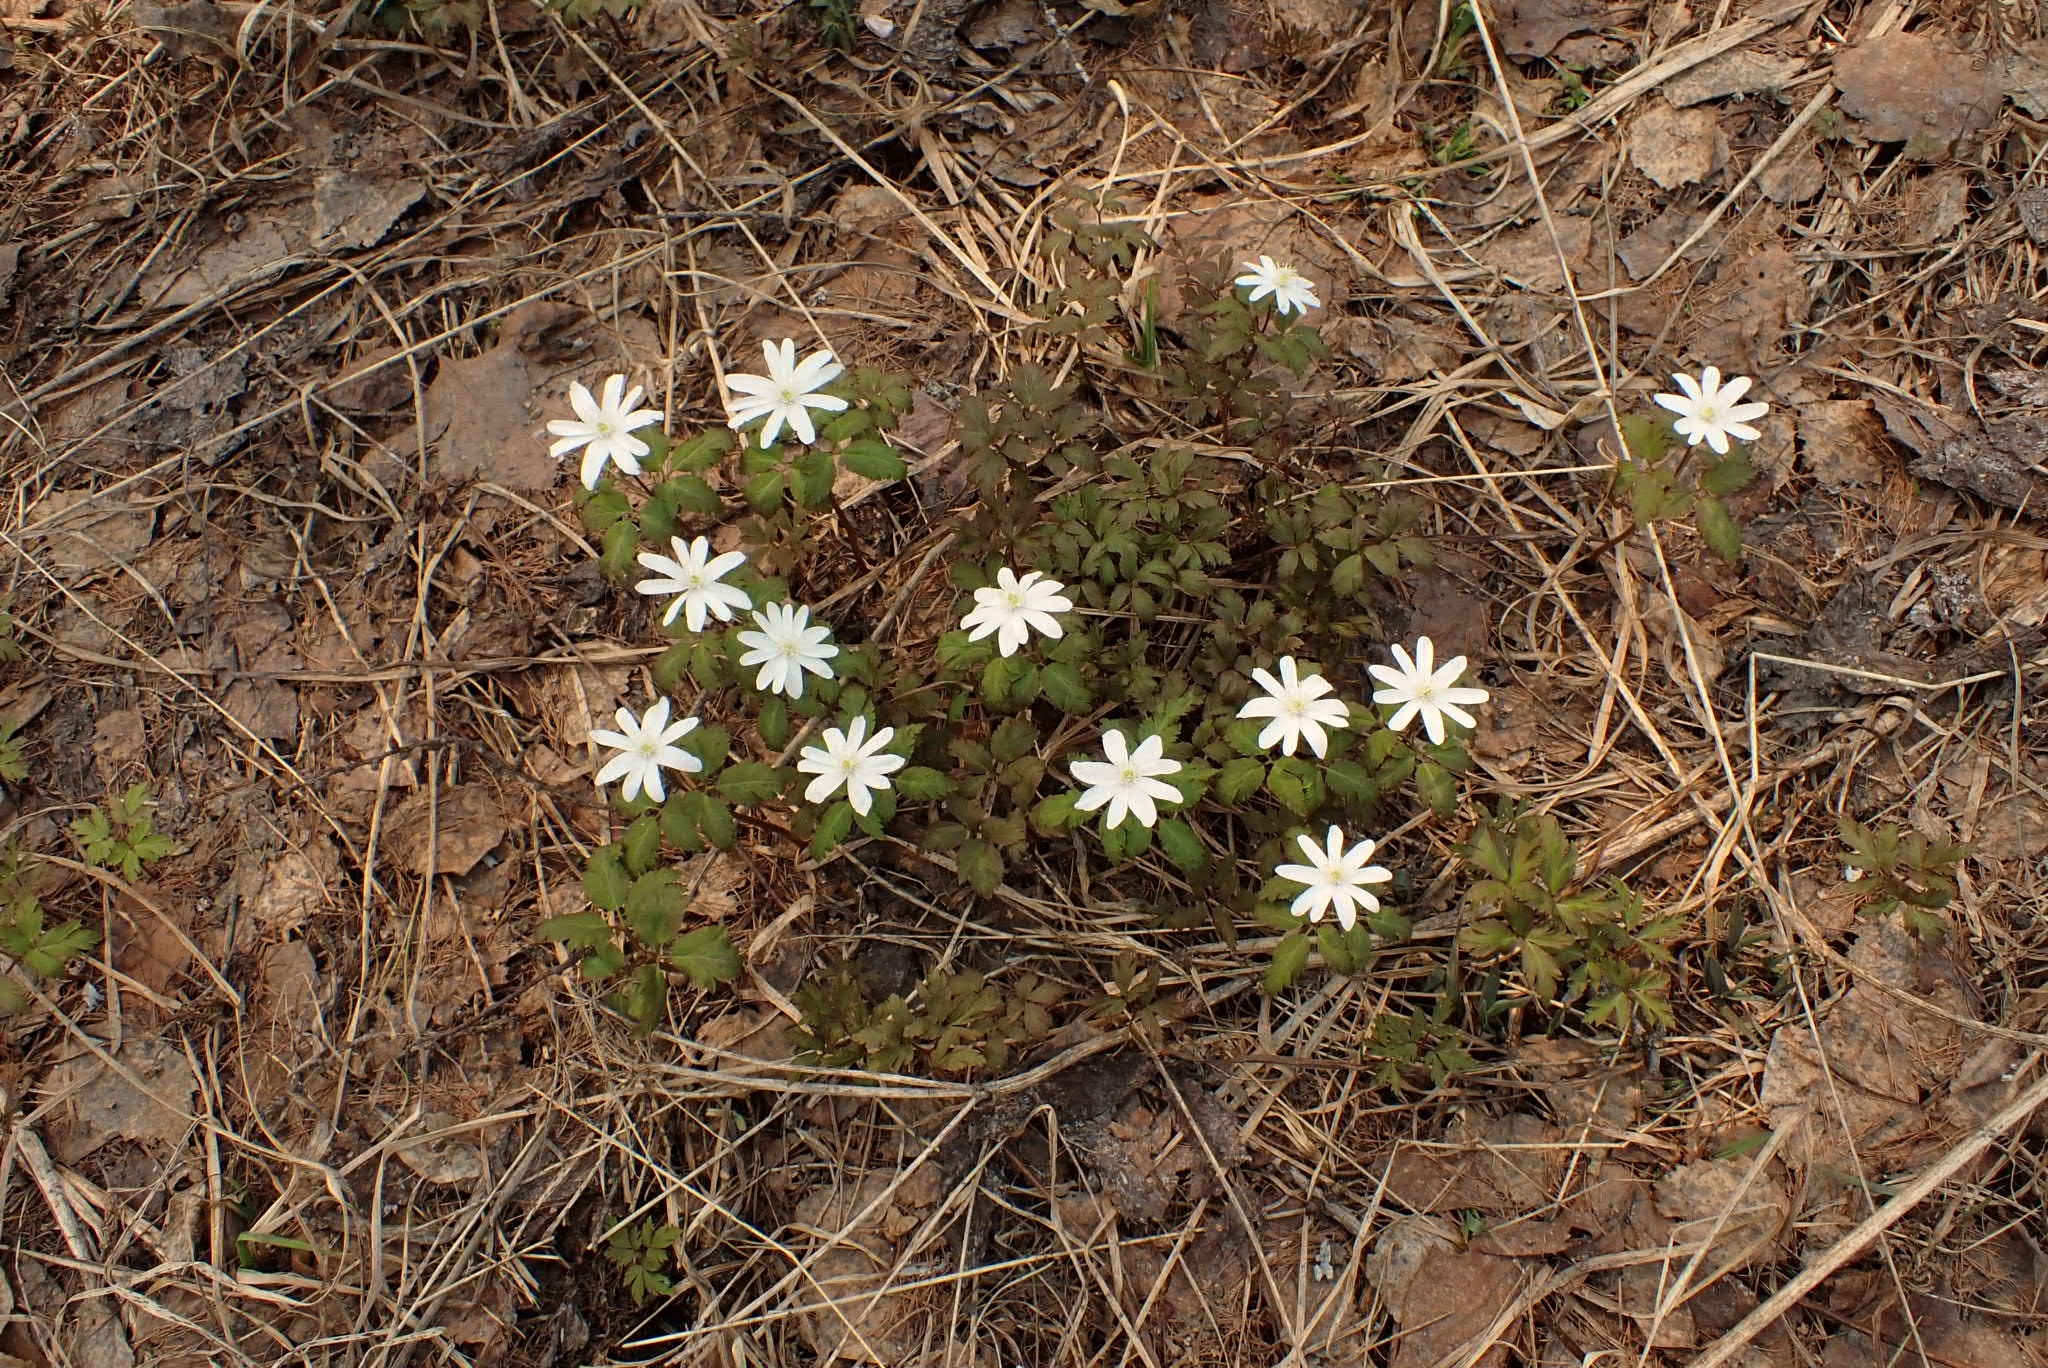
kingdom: Plantae
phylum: Tracheophyta
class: Magnoliopsida
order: Ranunculales
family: Ranunculaceae
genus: Anemone
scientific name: Anemone altaica
